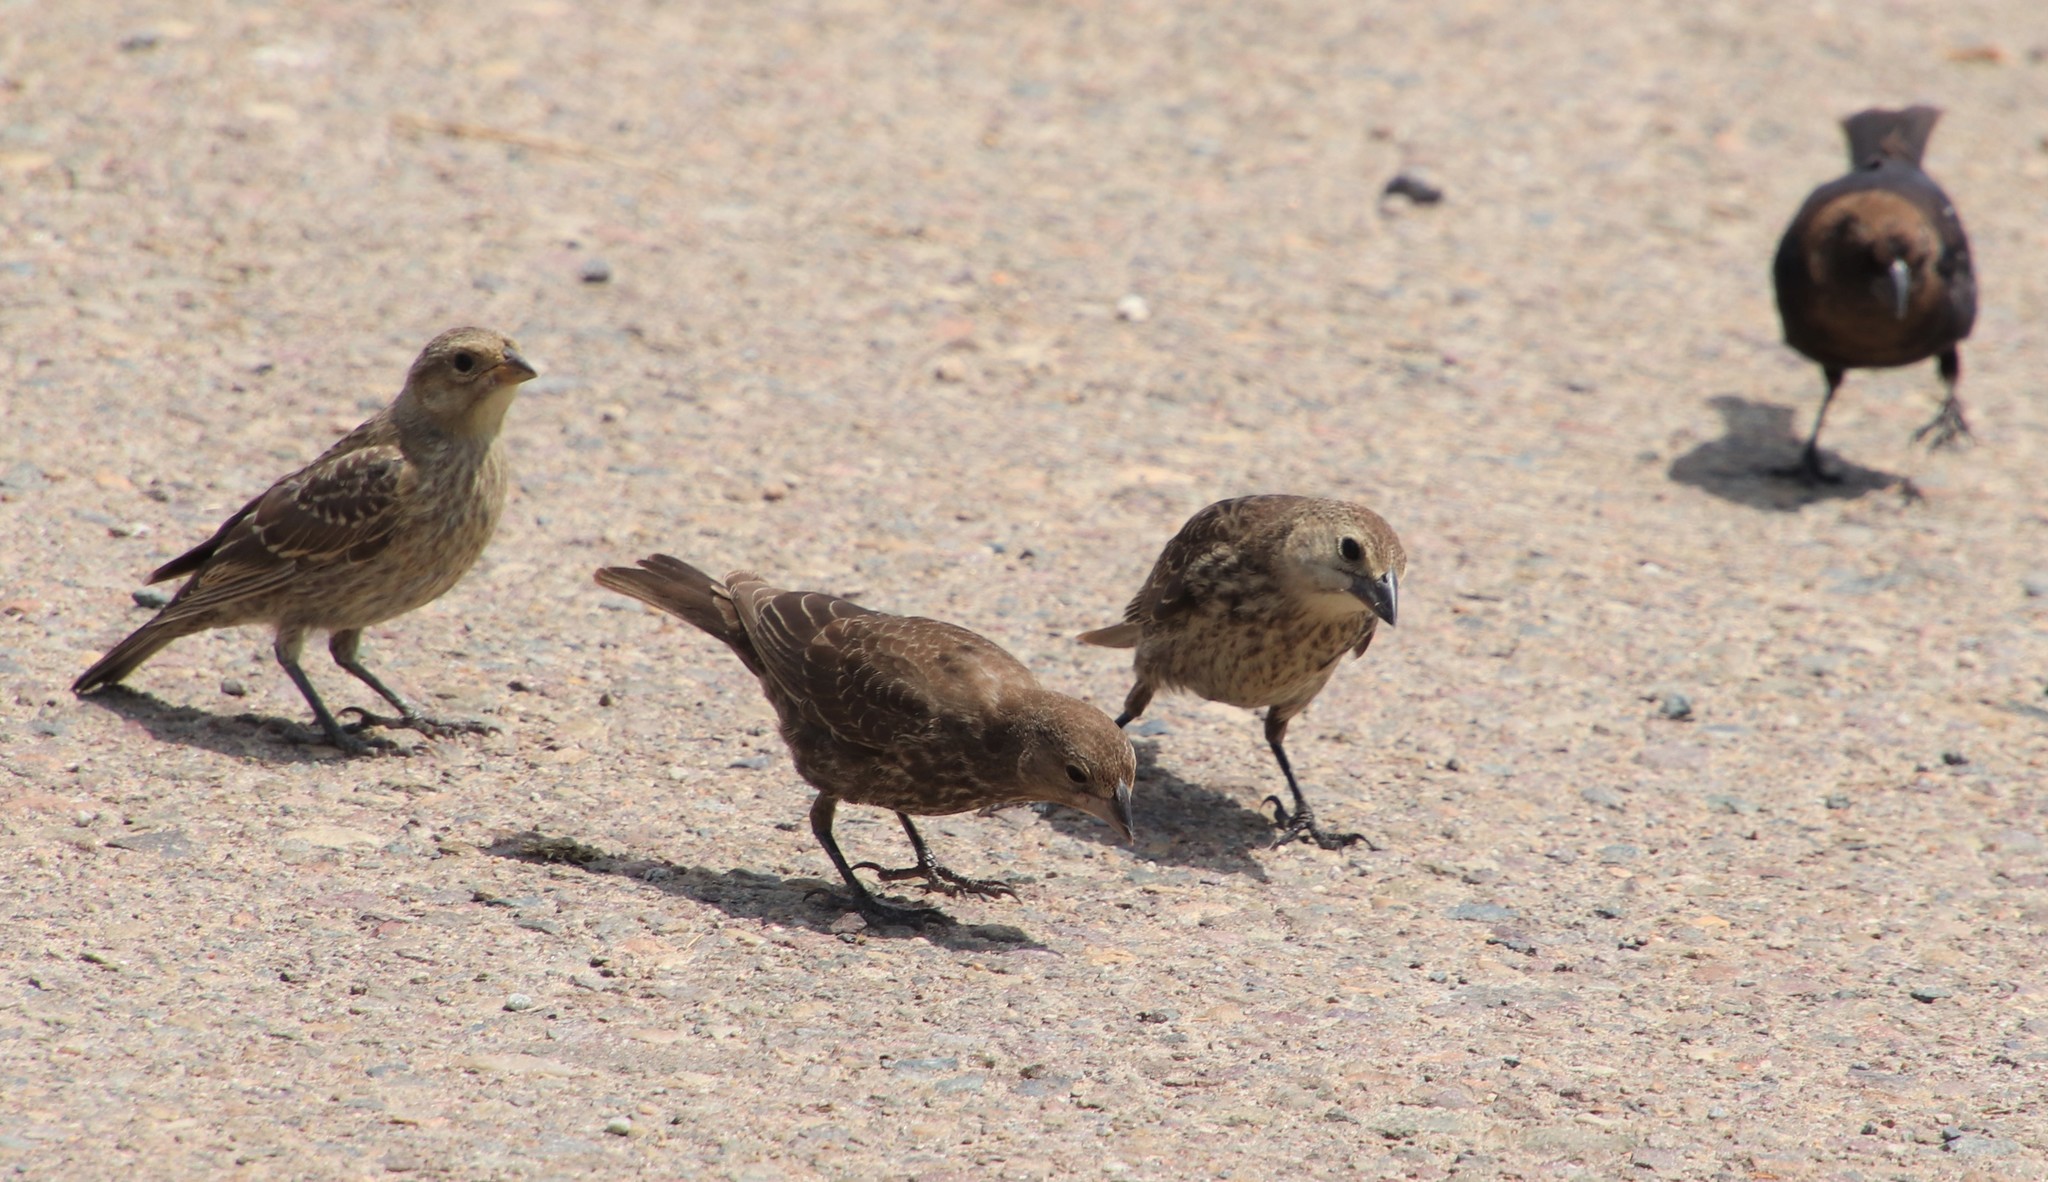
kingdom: Animalia
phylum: Chordata
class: Aves
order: Passeriformes
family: Icteridae
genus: Molothrus
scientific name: Molothrus ater
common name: Brown-headed cowbird
